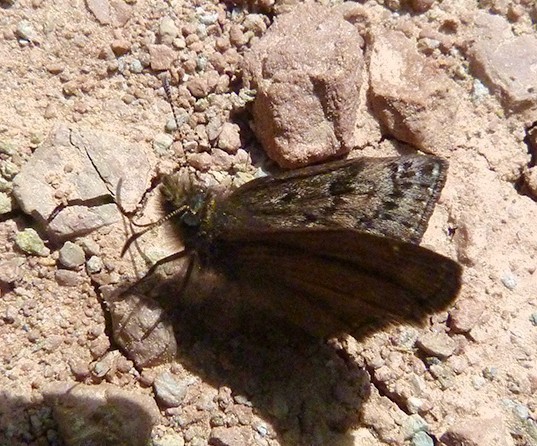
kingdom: Animalia
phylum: Arthropoda
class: Insecta
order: Lepidoptera
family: Hesperiidae
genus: Erynnis
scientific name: Erynnis tages
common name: Dingy skipper
